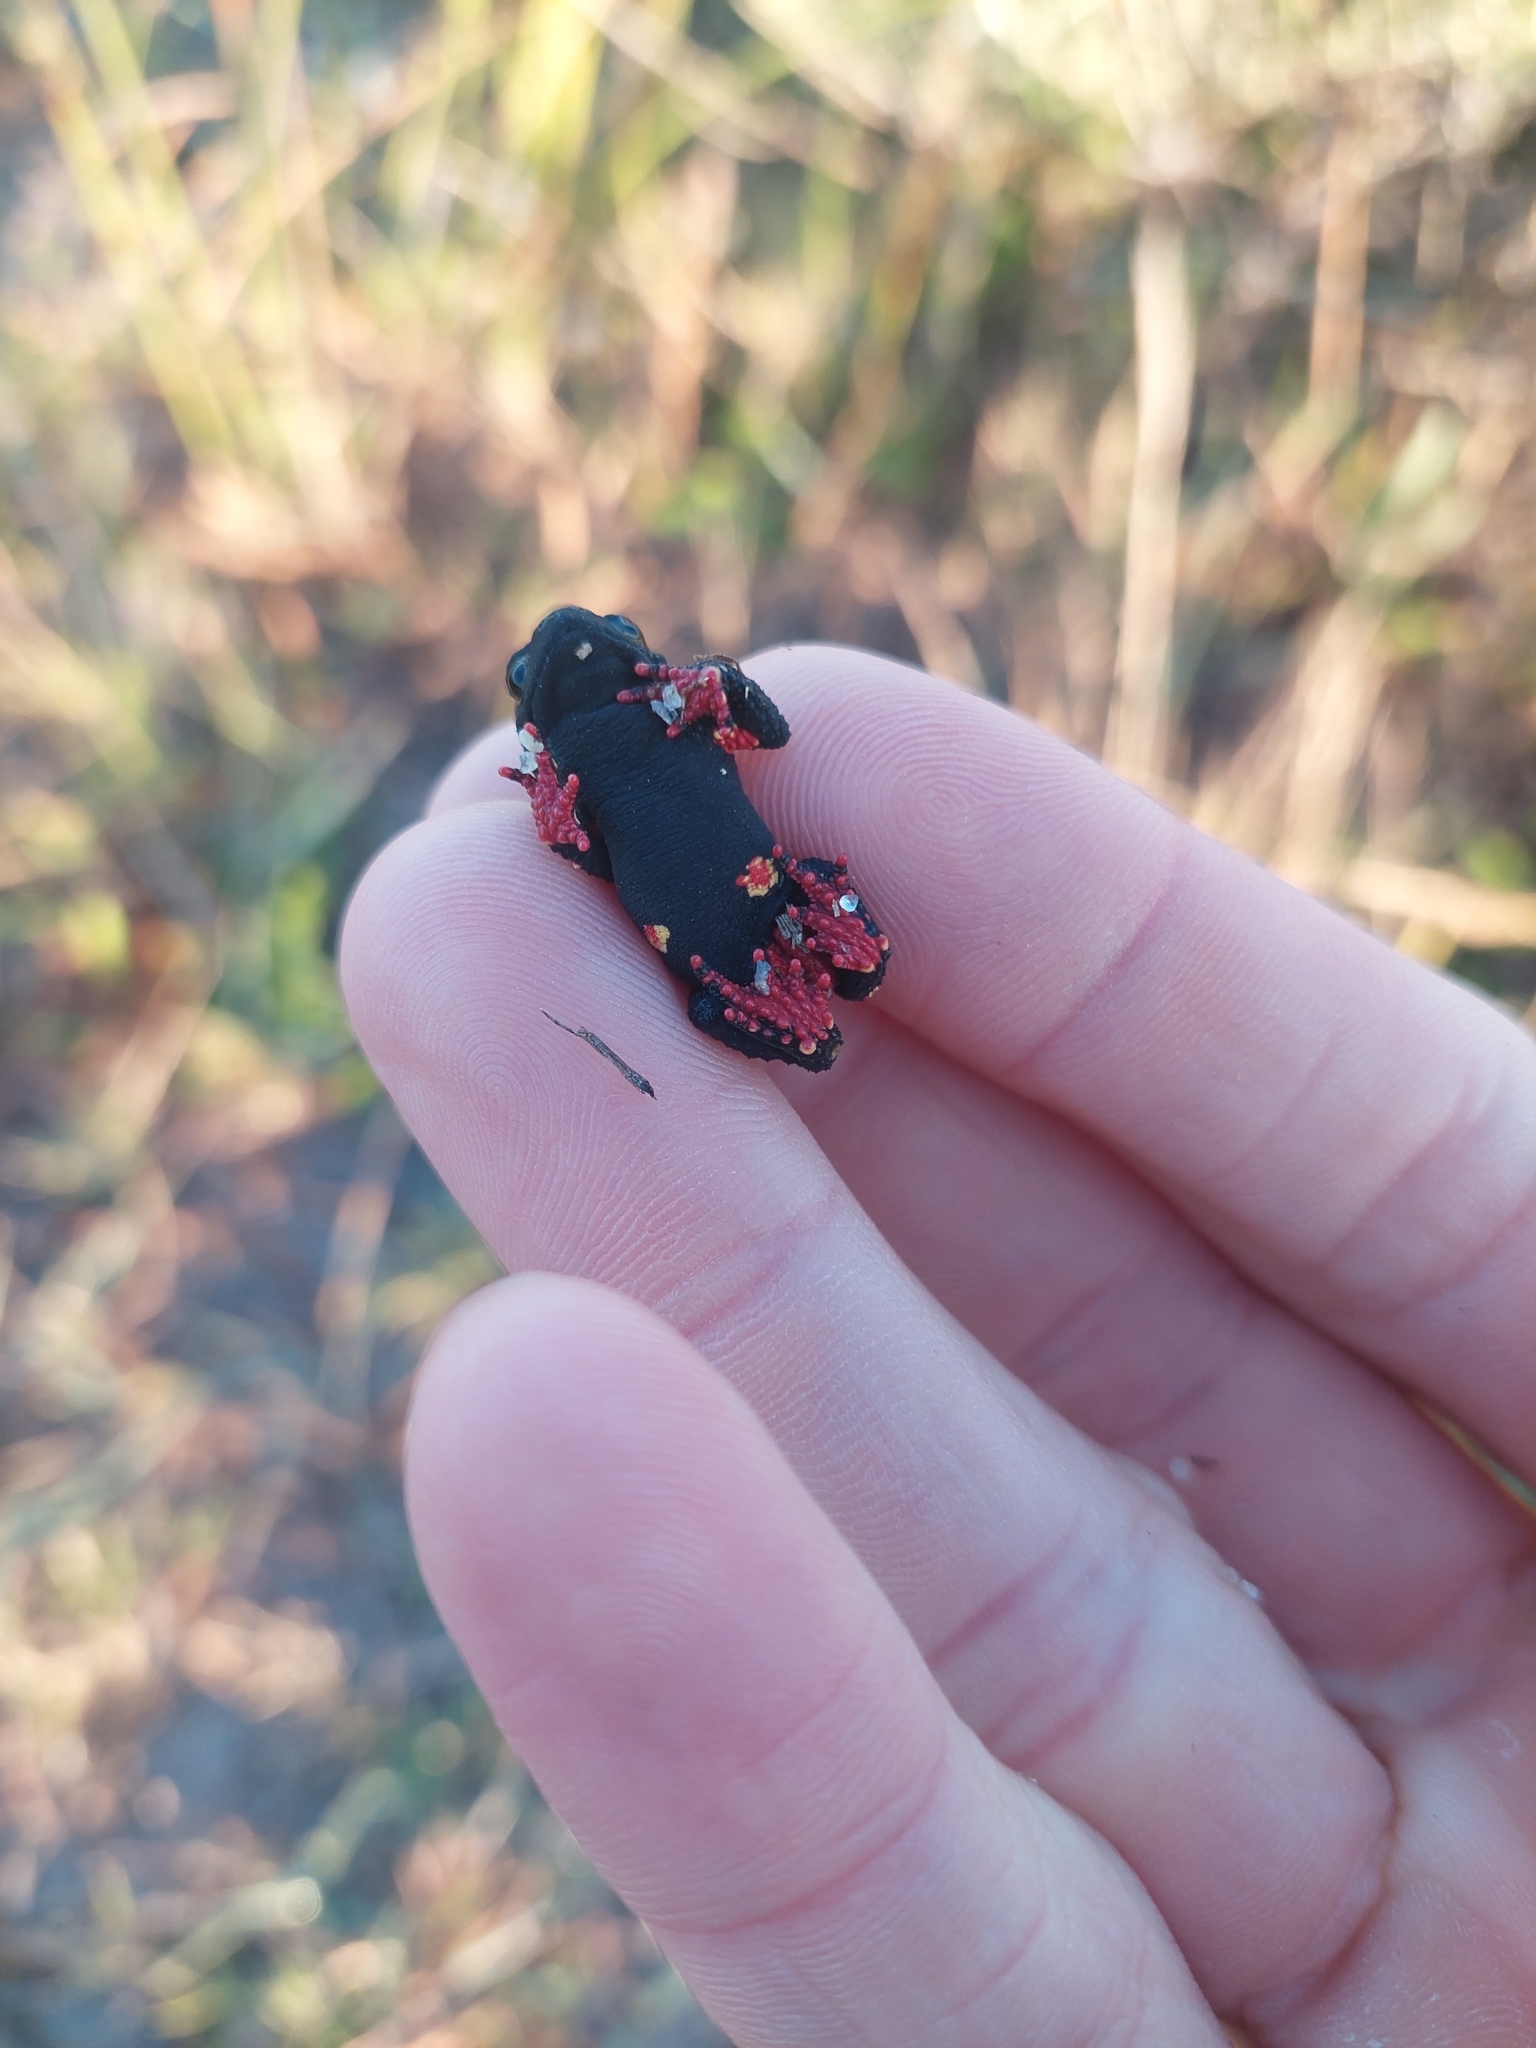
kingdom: Animalia
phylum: Chordata
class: Amphibia
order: Anura
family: Bufonidae
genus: Melanophryniscus
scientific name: Melanophryniscus montevidensis
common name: Montevideo redbelly toad
